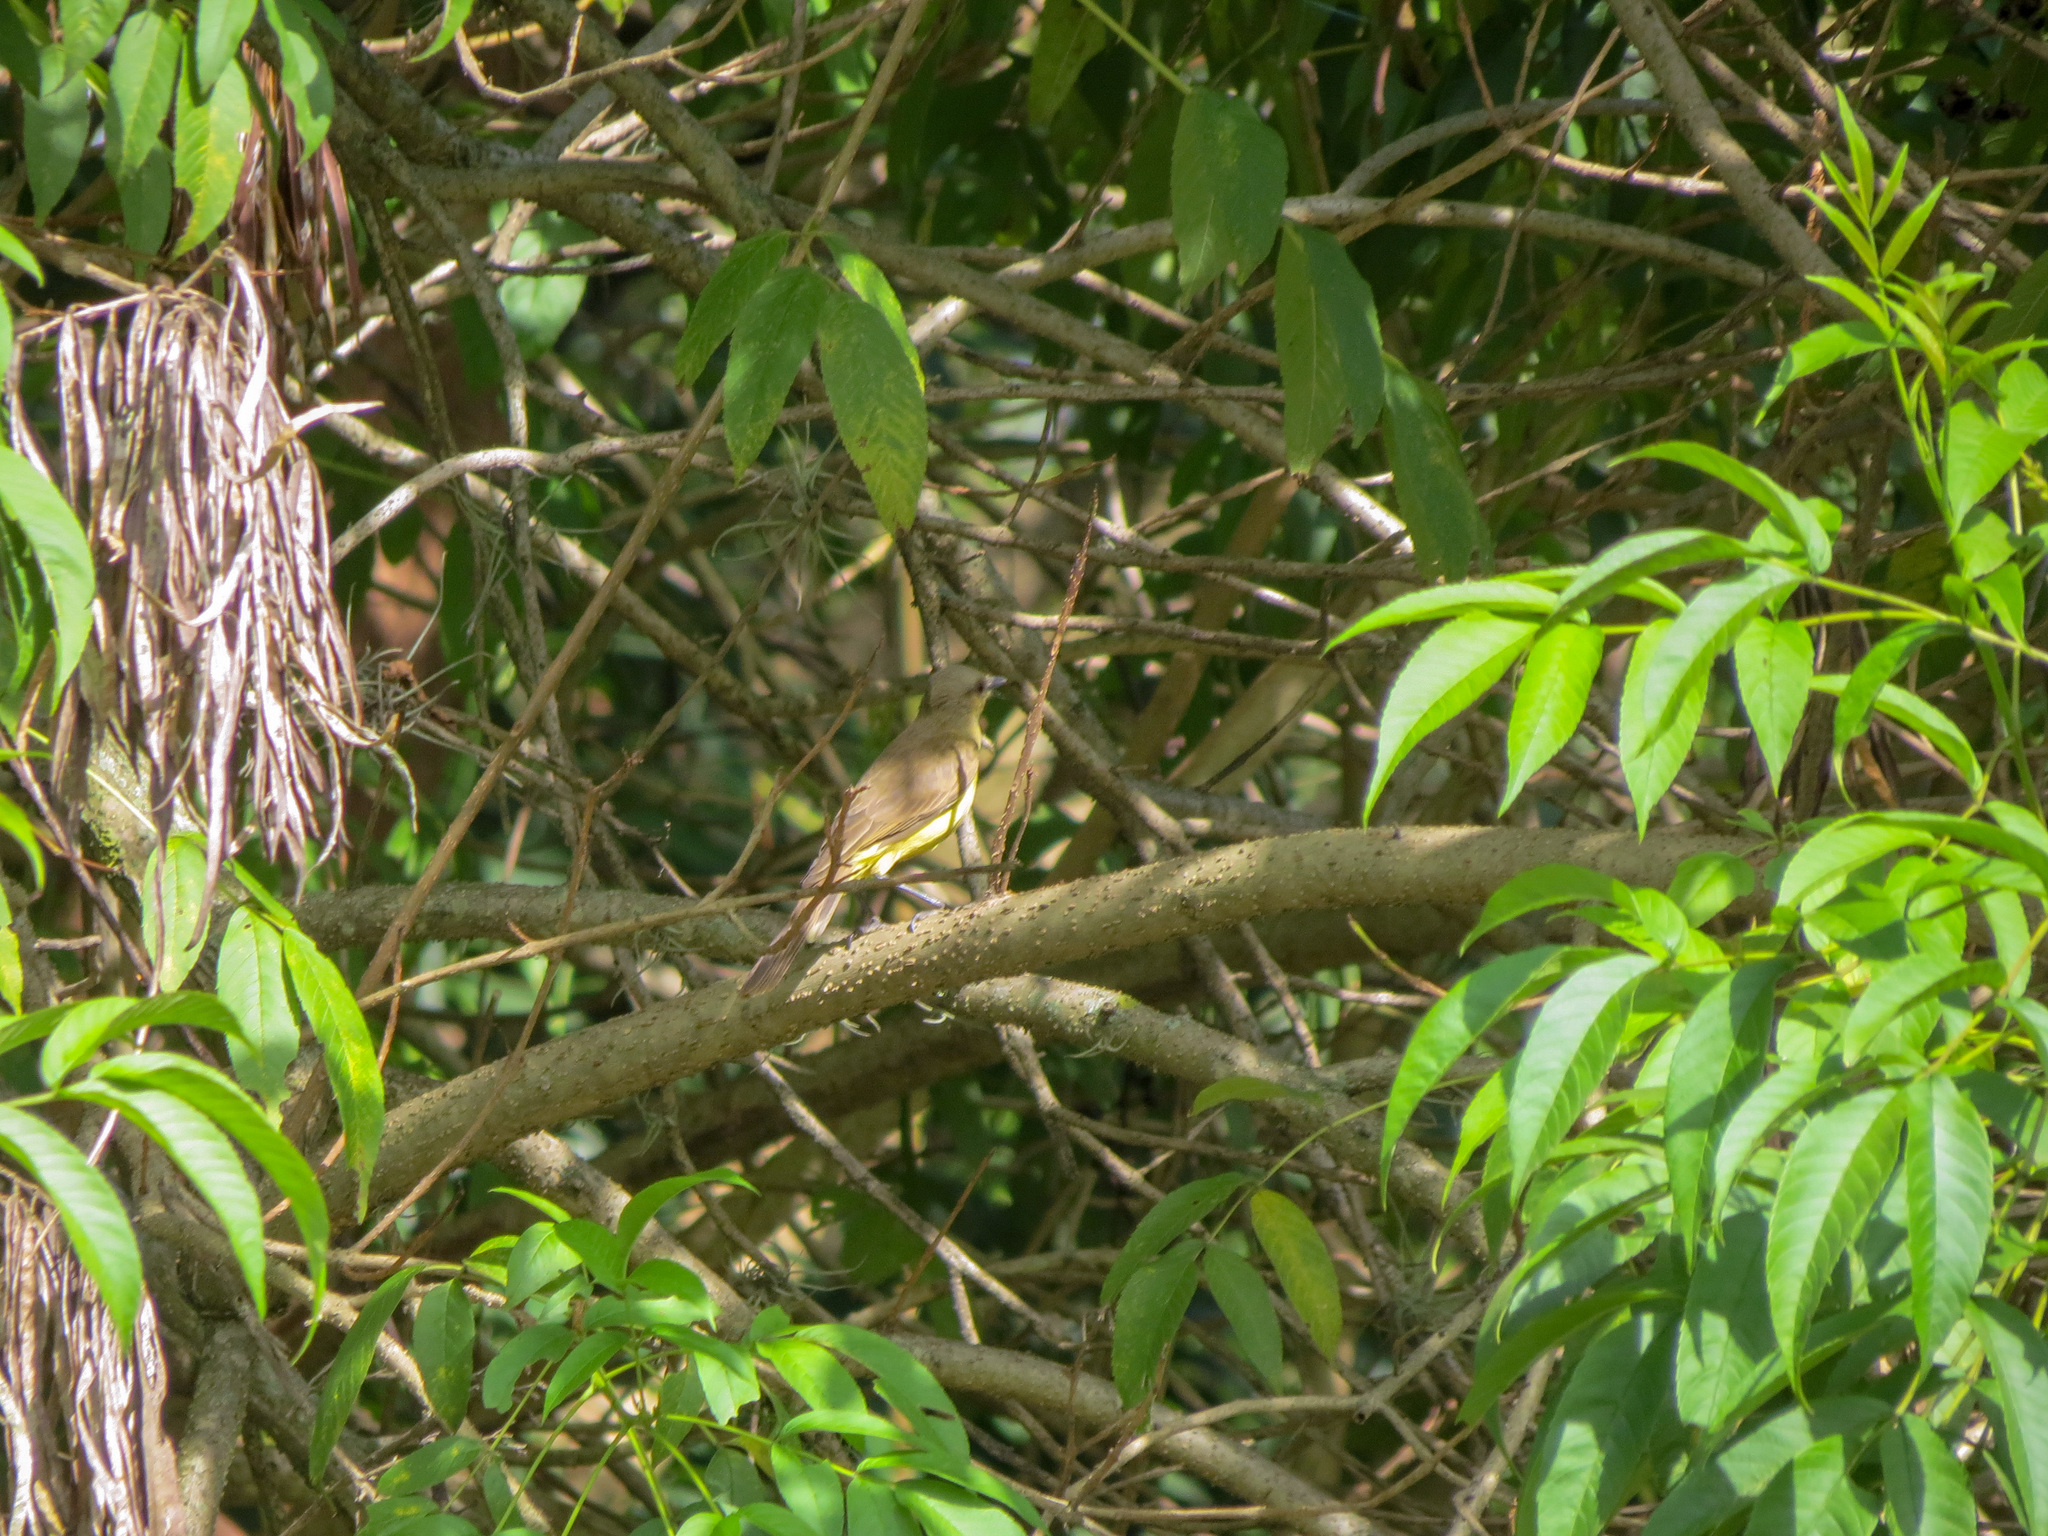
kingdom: Animalia
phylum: Chordata
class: Aves
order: Passeriformes
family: Tyrannidae
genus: Machetornis
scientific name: Machetornis rixosa
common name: Cattle tyrant
